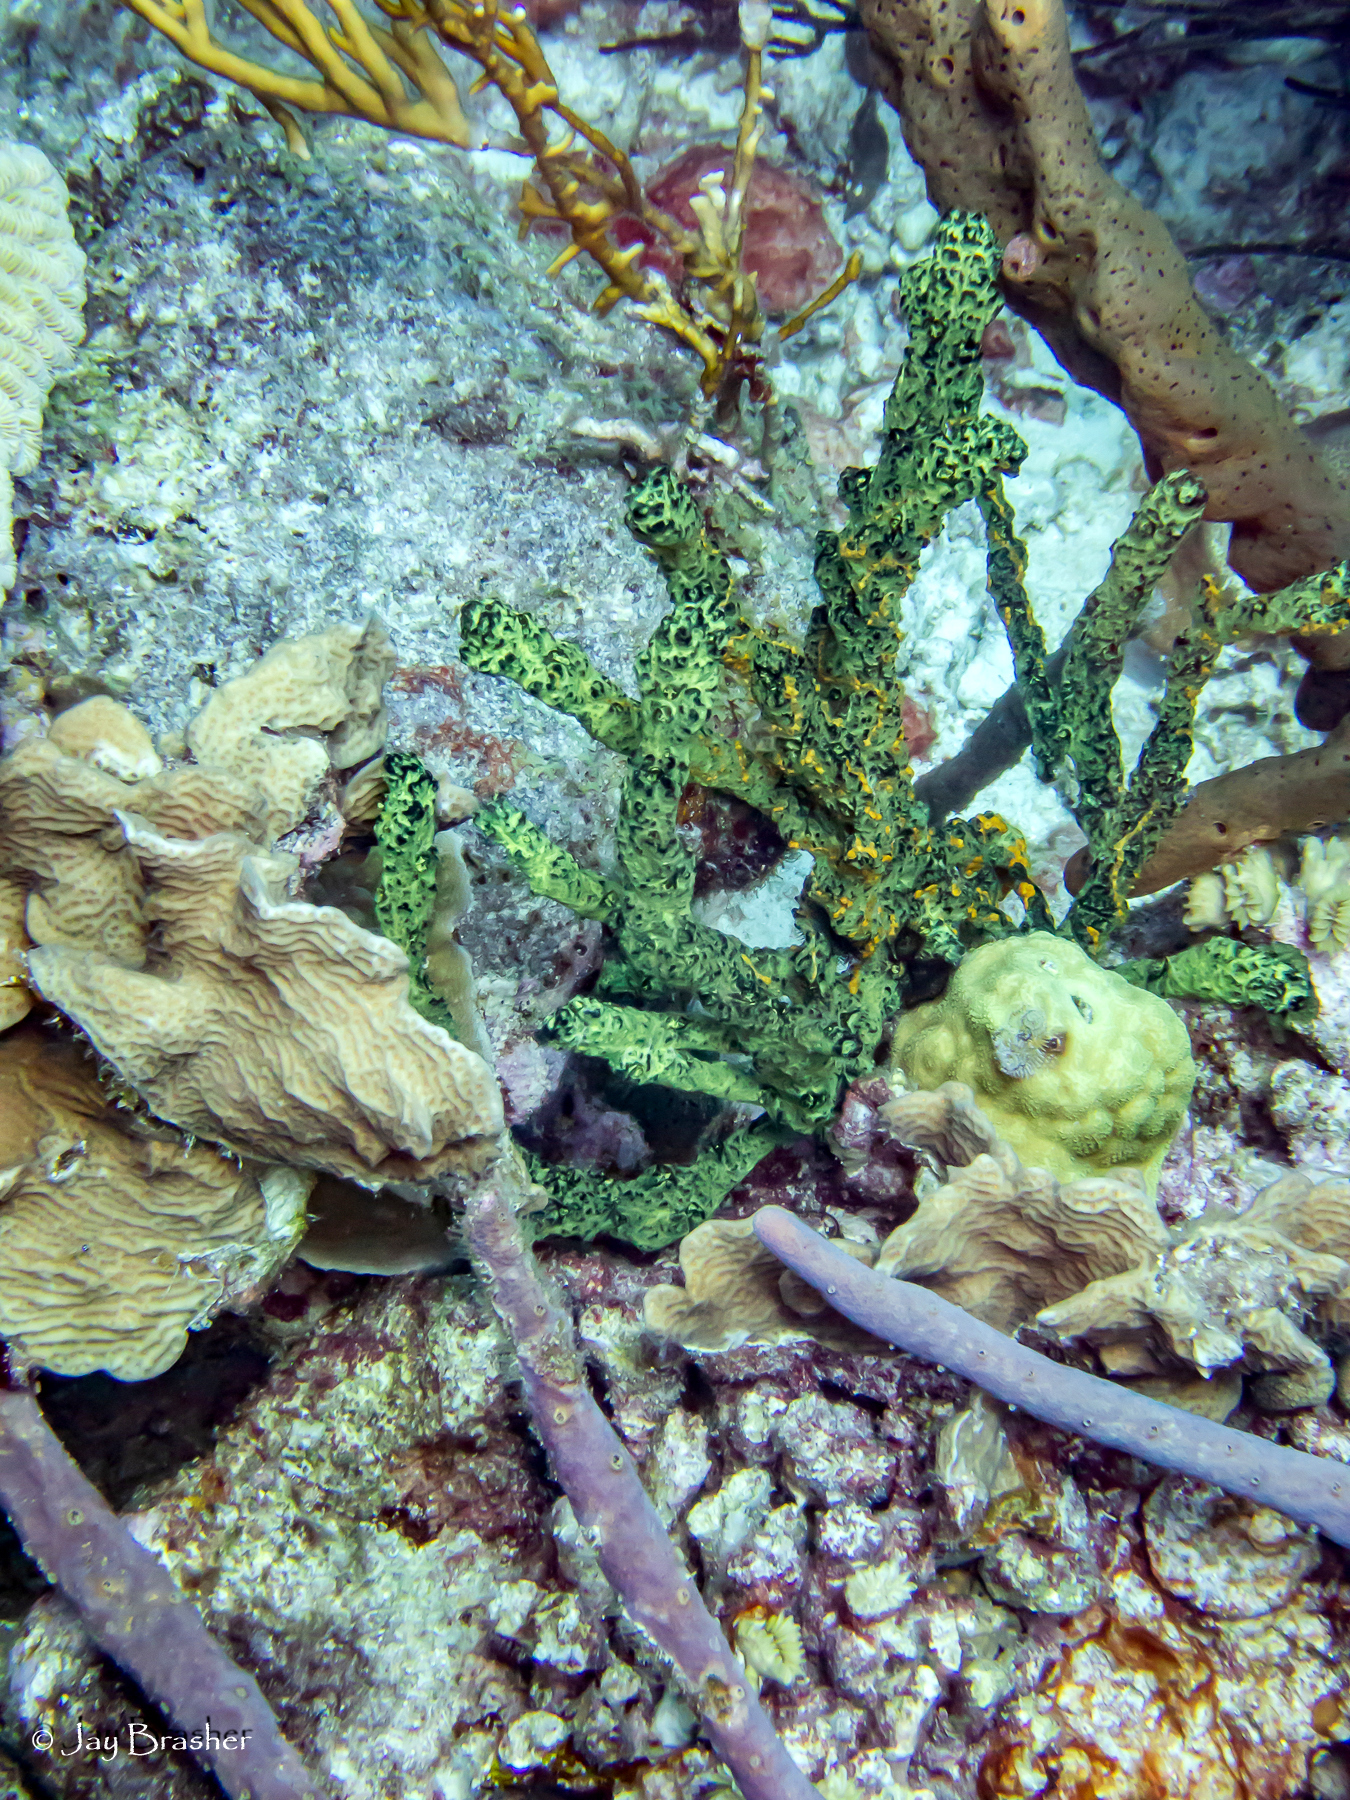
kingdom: Animalia
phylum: Cnidaria
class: Anthozoa
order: Scleractinia
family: Poritidae
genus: Porites
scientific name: Porites astreoides
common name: Mustard hill coral
